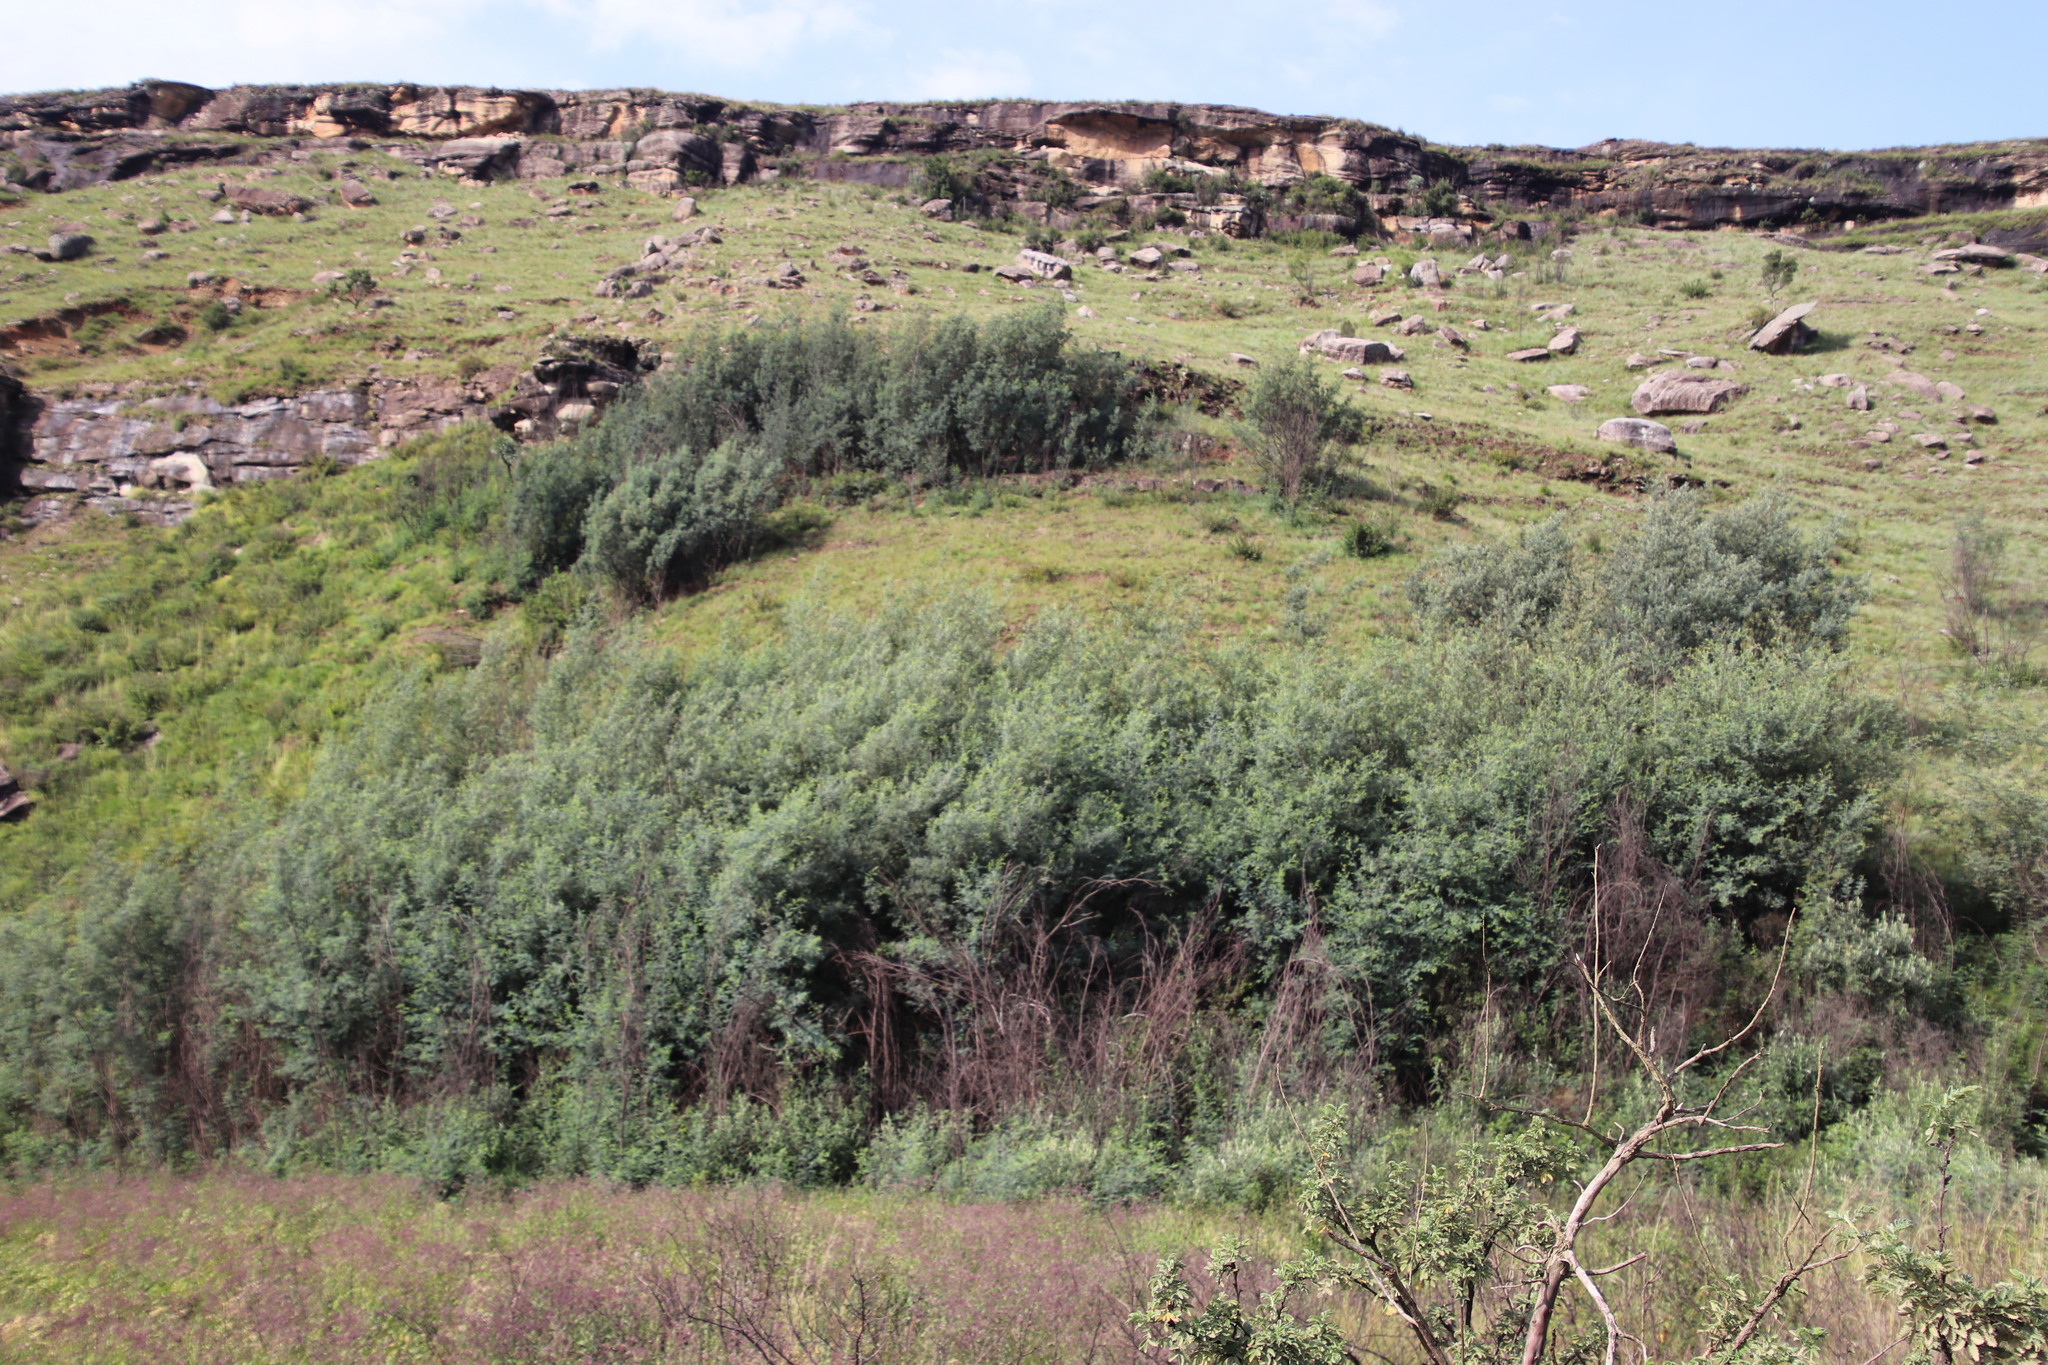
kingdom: Plantae
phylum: Tracheophyta
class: Magnoliopsida
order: Fabales
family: Fabaceae
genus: Acacia
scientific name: Acacia dealbata
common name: Silver wattle
